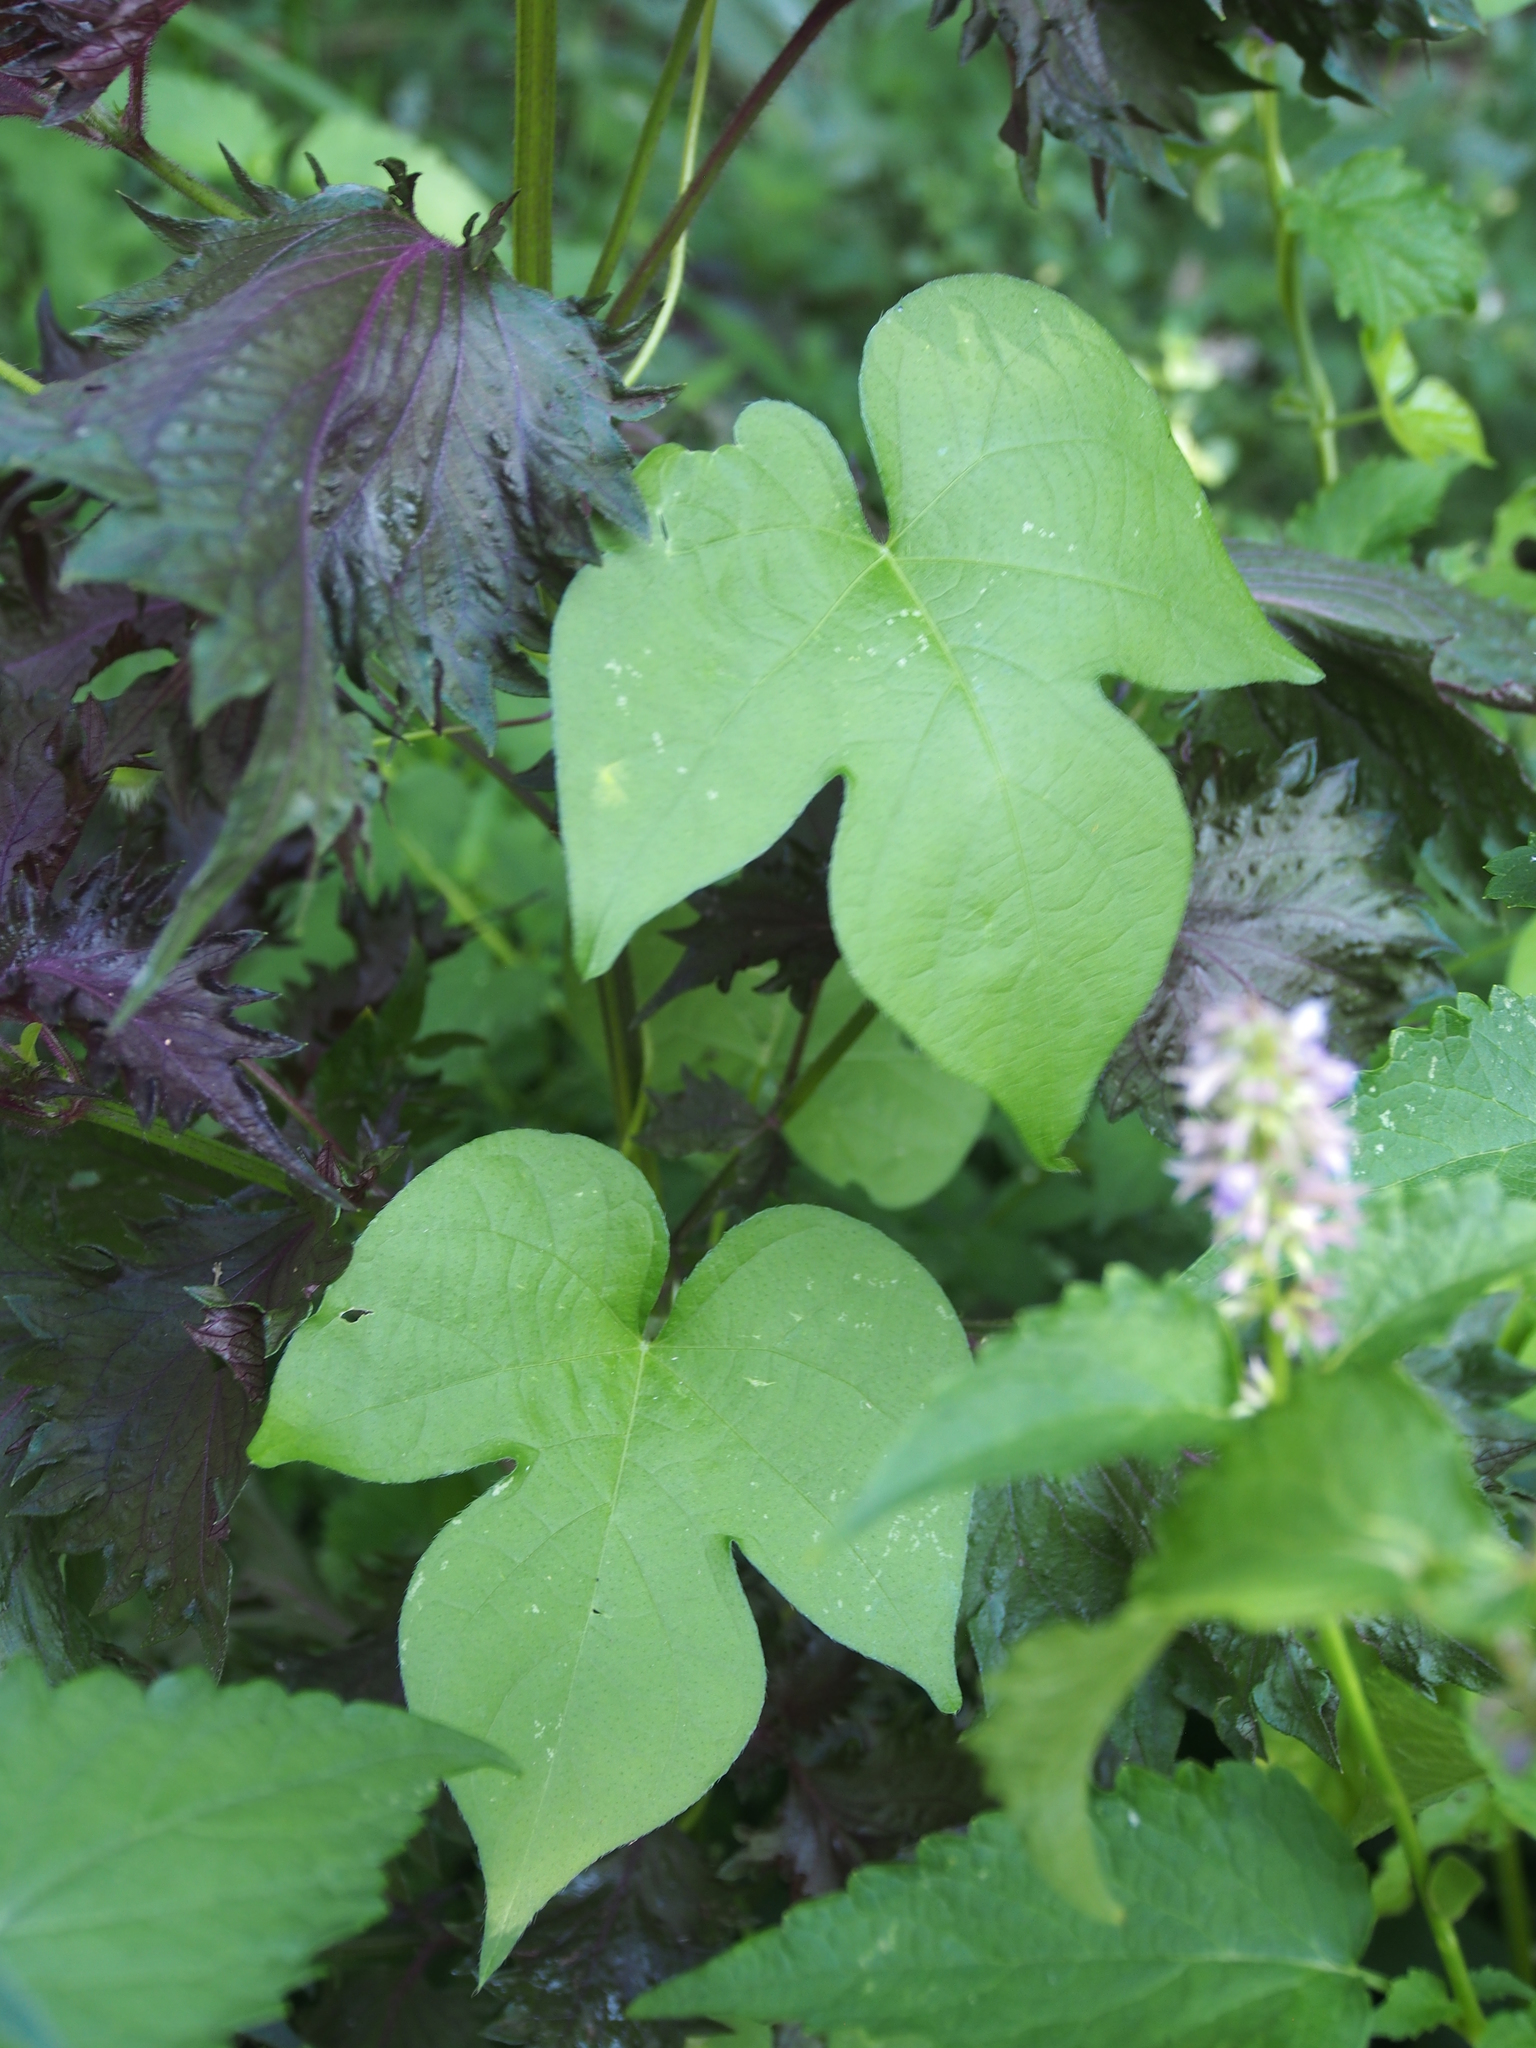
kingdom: Plantae
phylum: Tracheophyta
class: Magnoliopsida
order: Solanales
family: Convolvulaceae
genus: Ipomoea
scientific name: Ipomoea hederacea
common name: Ivy-leaved morning-glory
